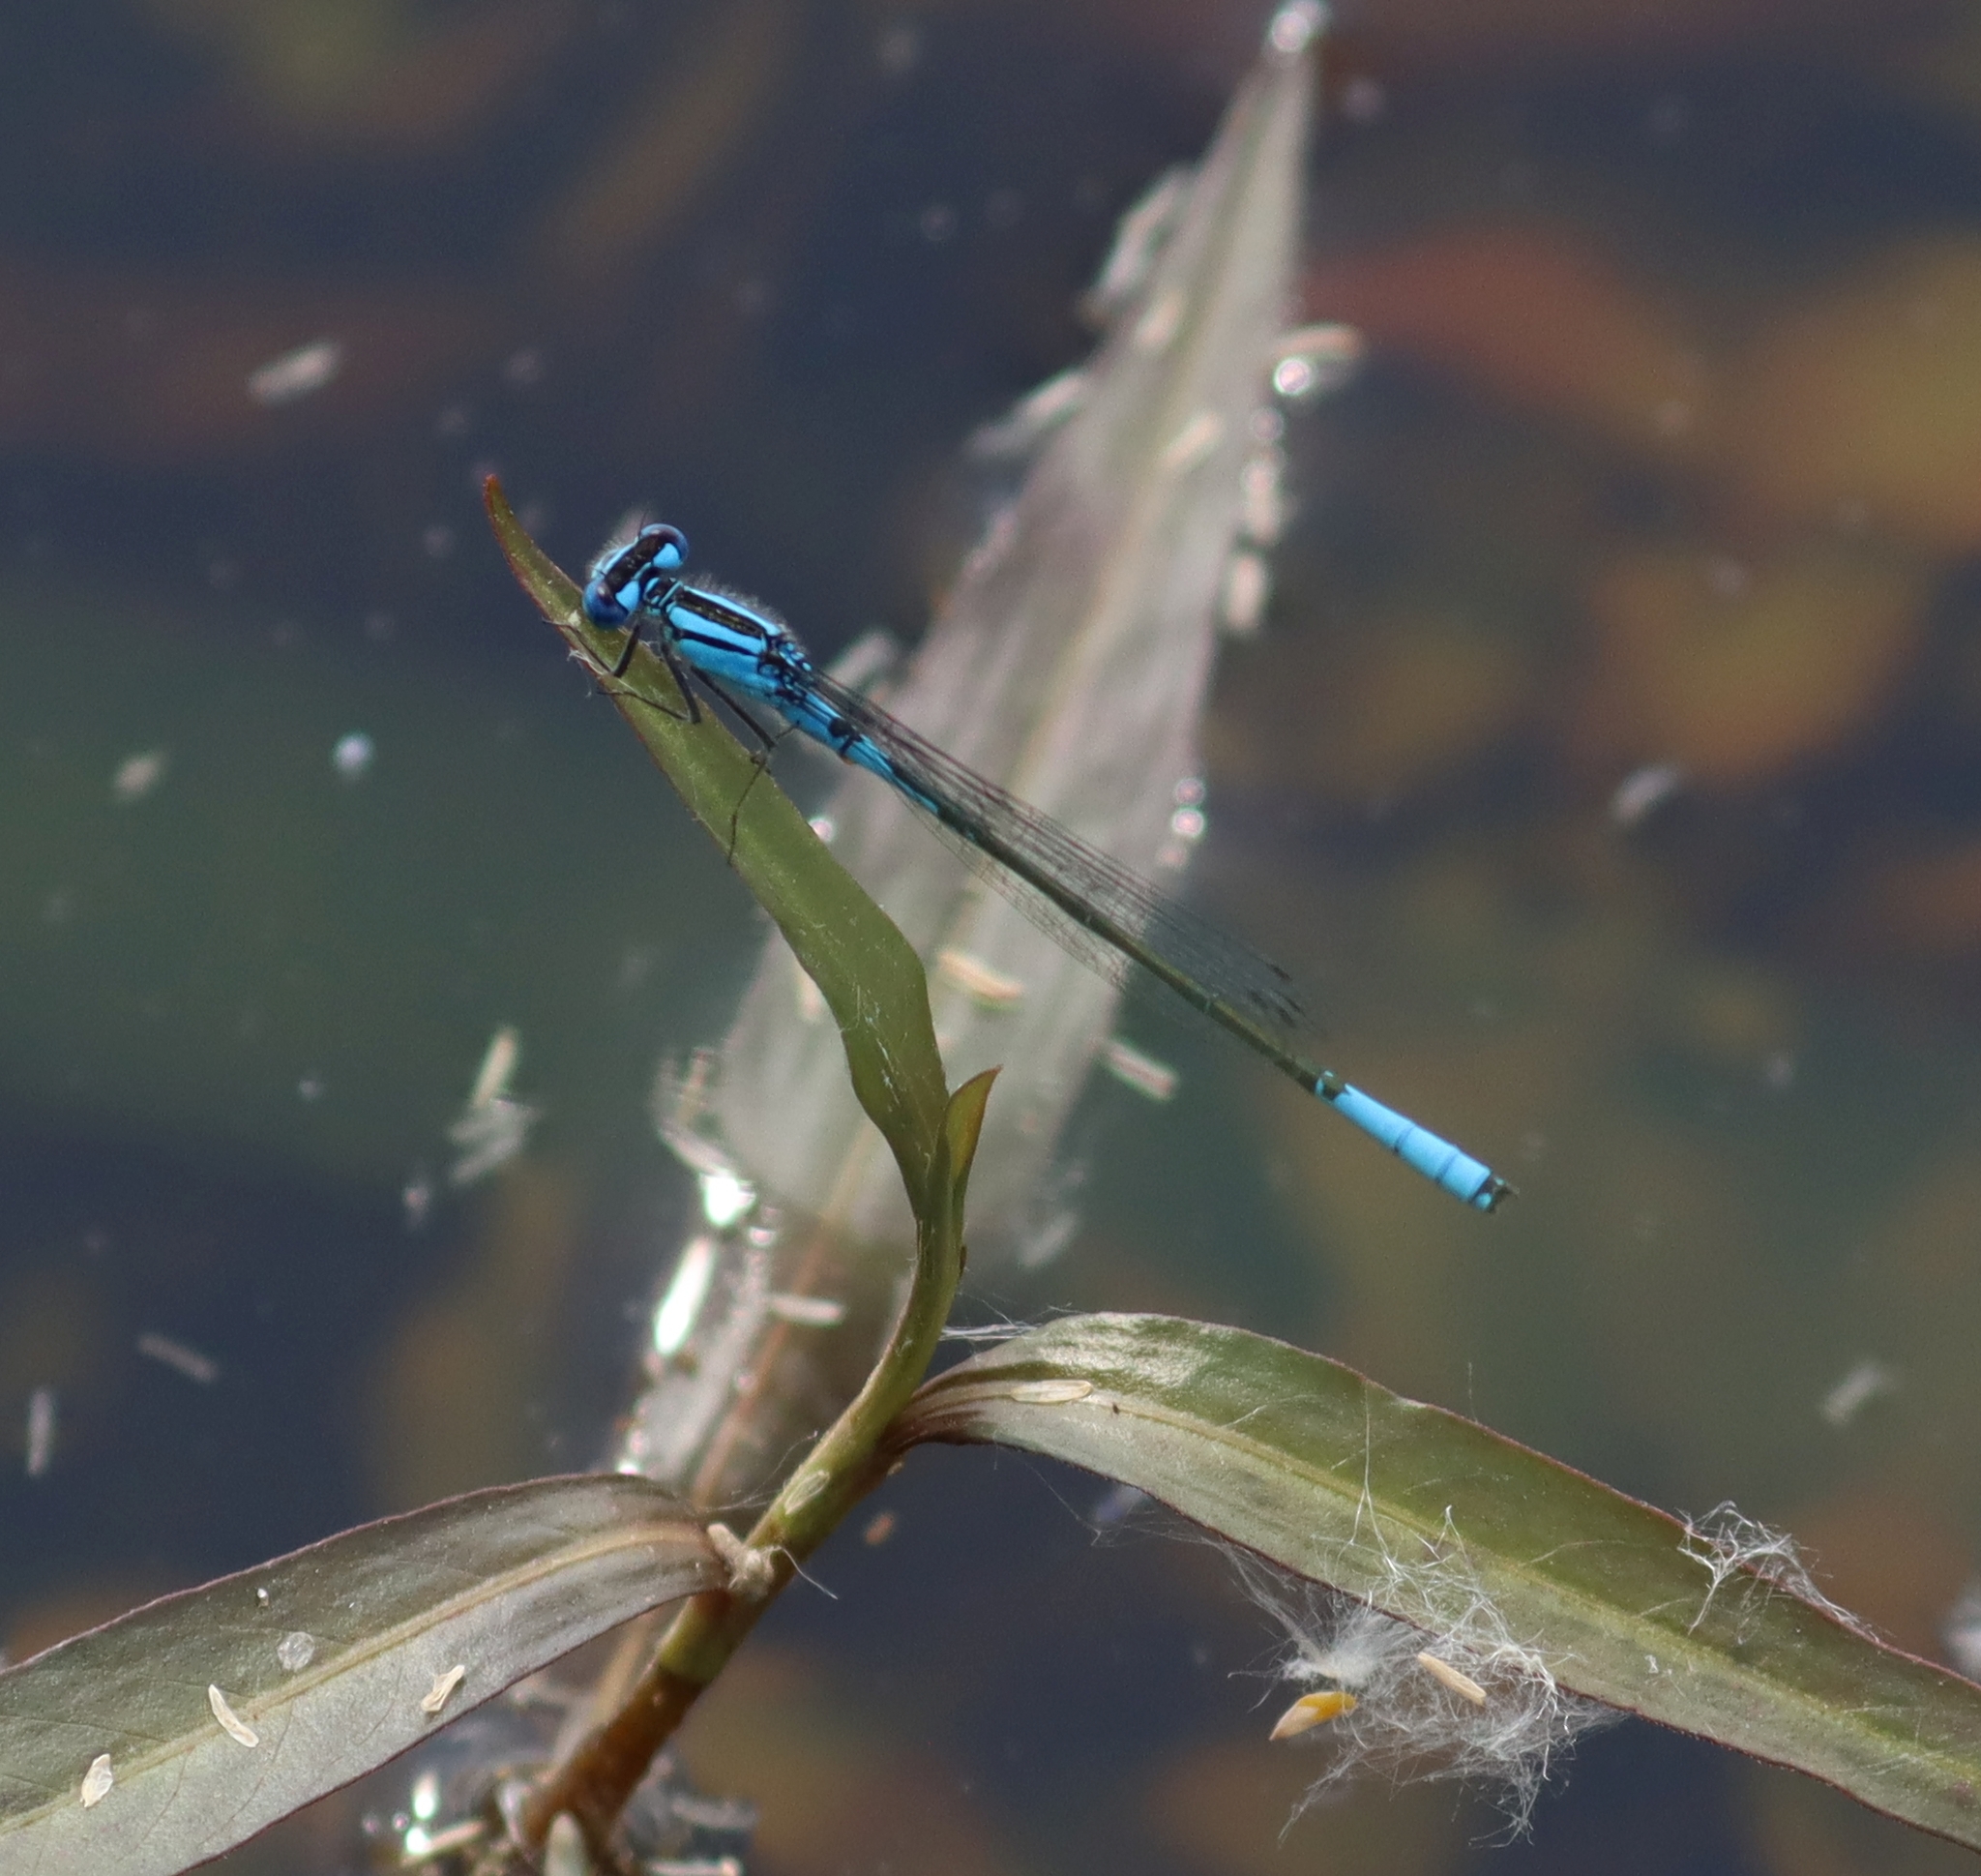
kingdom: Animalia
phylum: Arthropoda
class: Insecta
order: Odonata
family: Coenagrionidae
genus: Enallagma
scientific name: Enallagma aspersum
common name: Azure bluet
